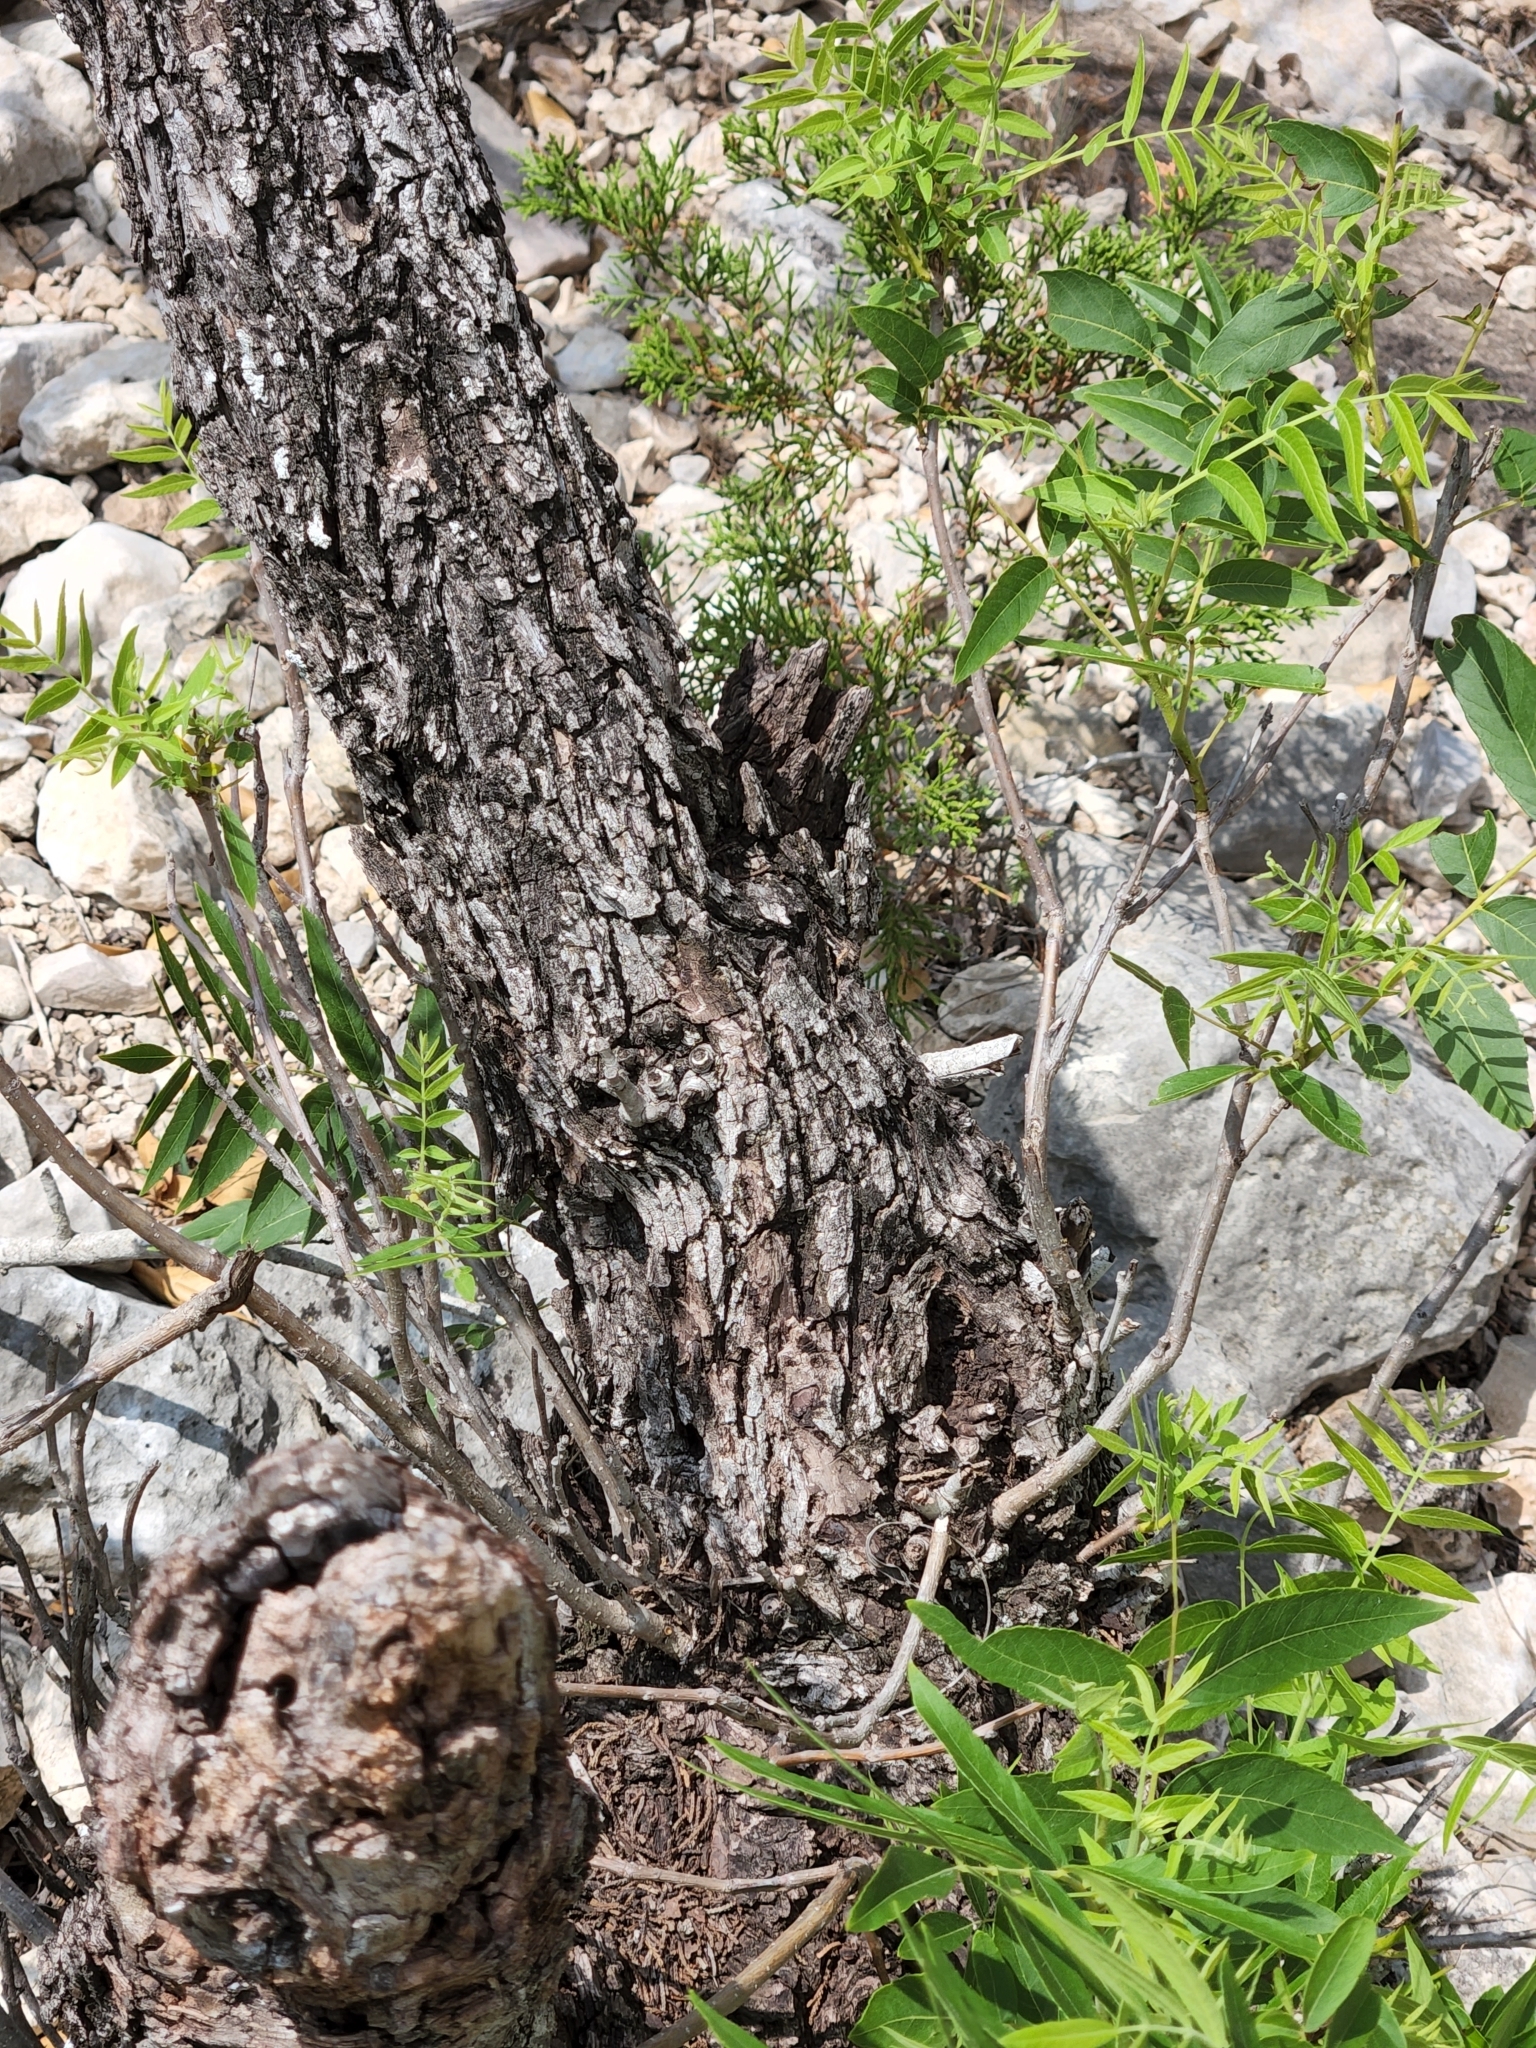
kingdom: Plantae
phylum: Tracheophyta
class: Magnoliopsida
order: Fagales
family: Juglandaceae
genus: Juglans
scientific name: Juglans microcarpa
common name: Texas walnut
